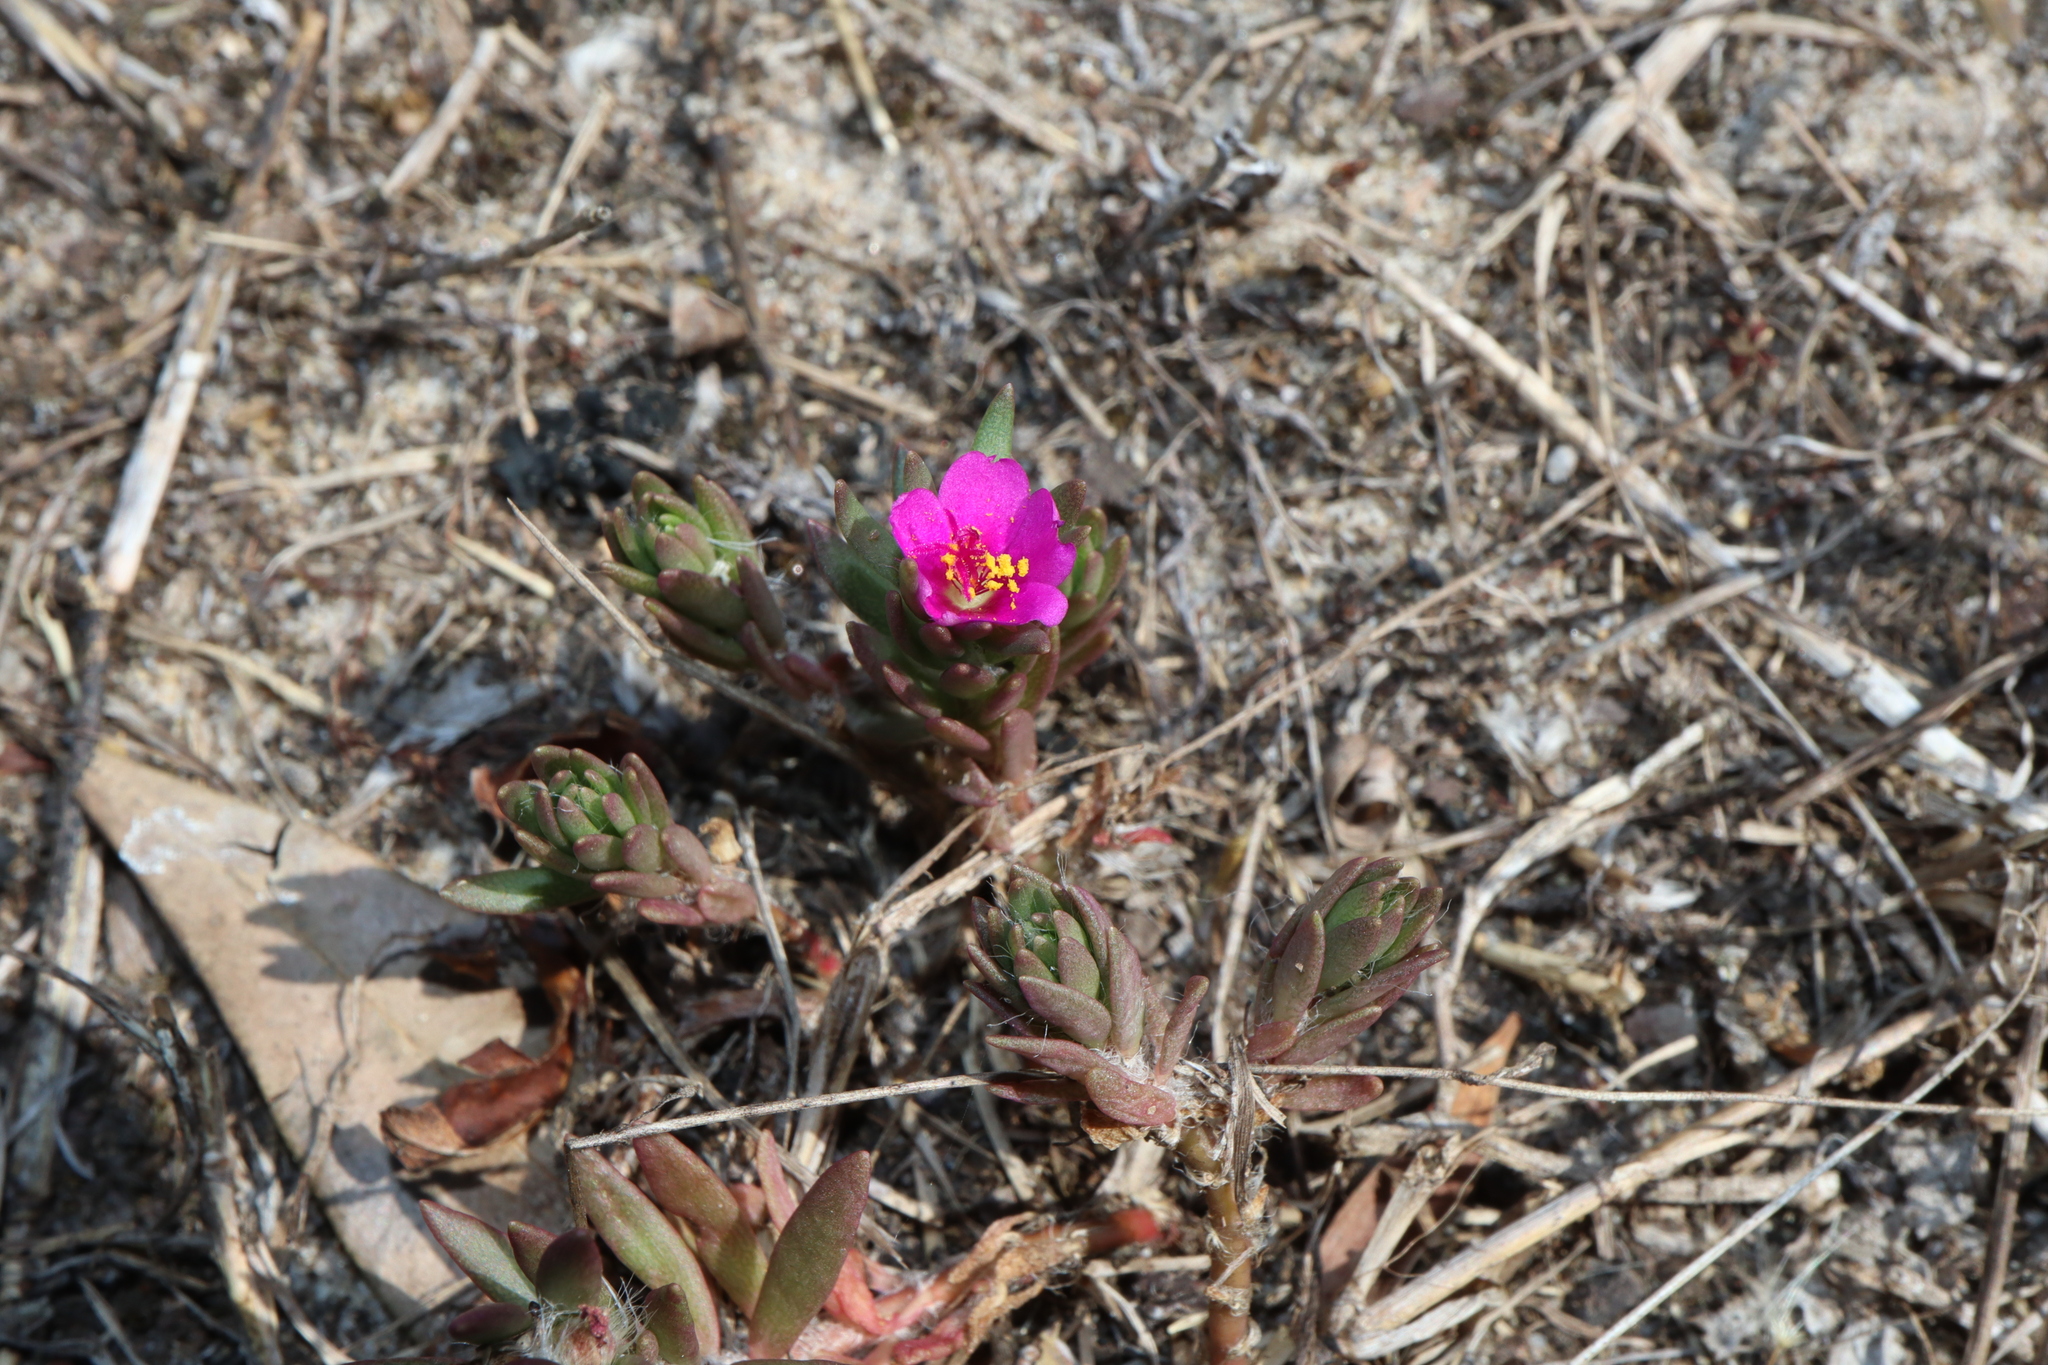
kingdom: Plantae
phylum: Tracheophyta
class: Magnoliopsida
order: Caryophyllales
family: Portulacaceae
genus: Portulaca
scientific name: Portulaca pilosa
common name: Kiss me quick
